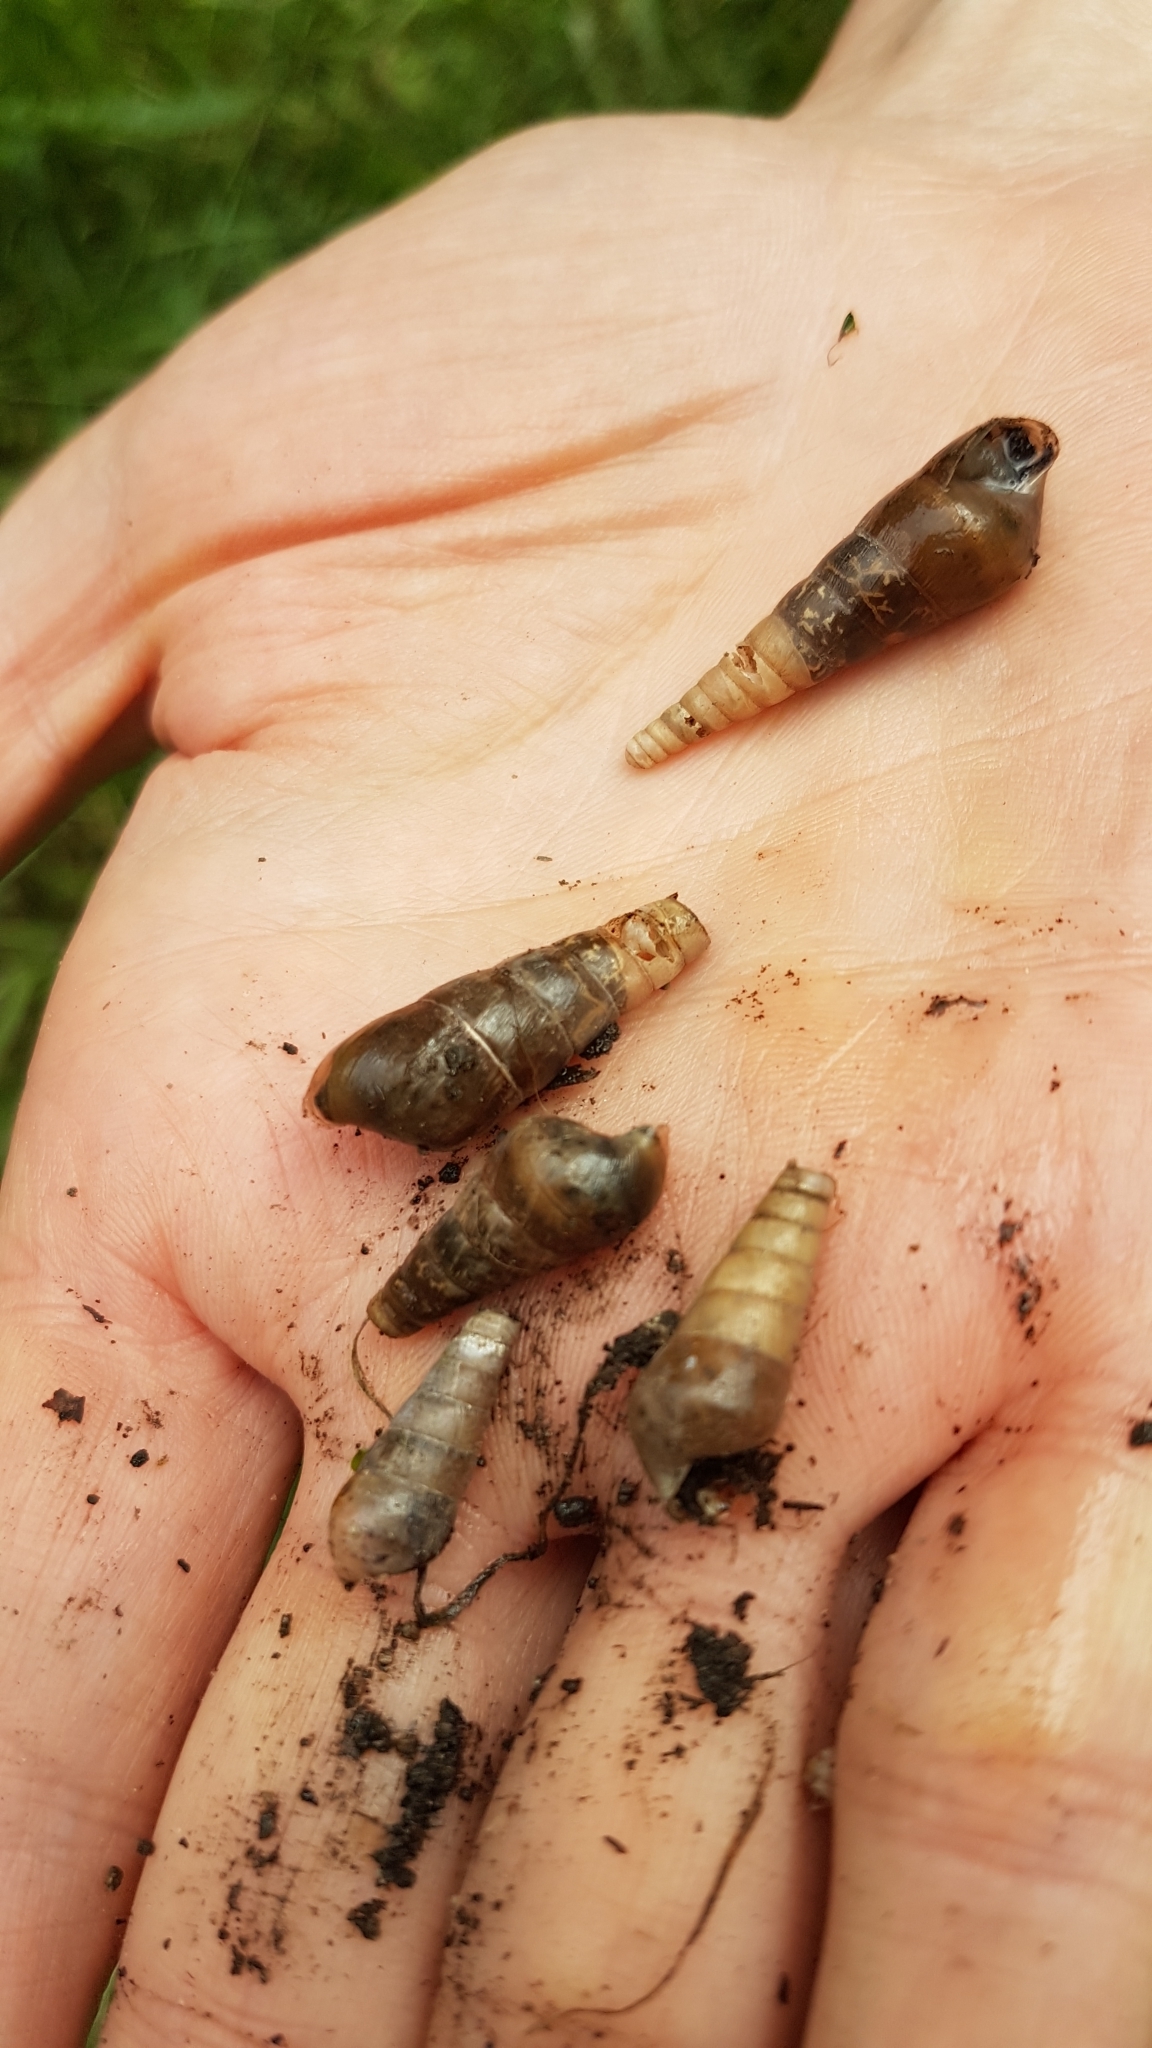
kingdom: Animalia
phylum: Mollusca
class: Gastropoda
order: Stylommatophora
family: Achatinidae
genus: Rumina
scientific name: Rumina decollata
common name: Decollate snail
